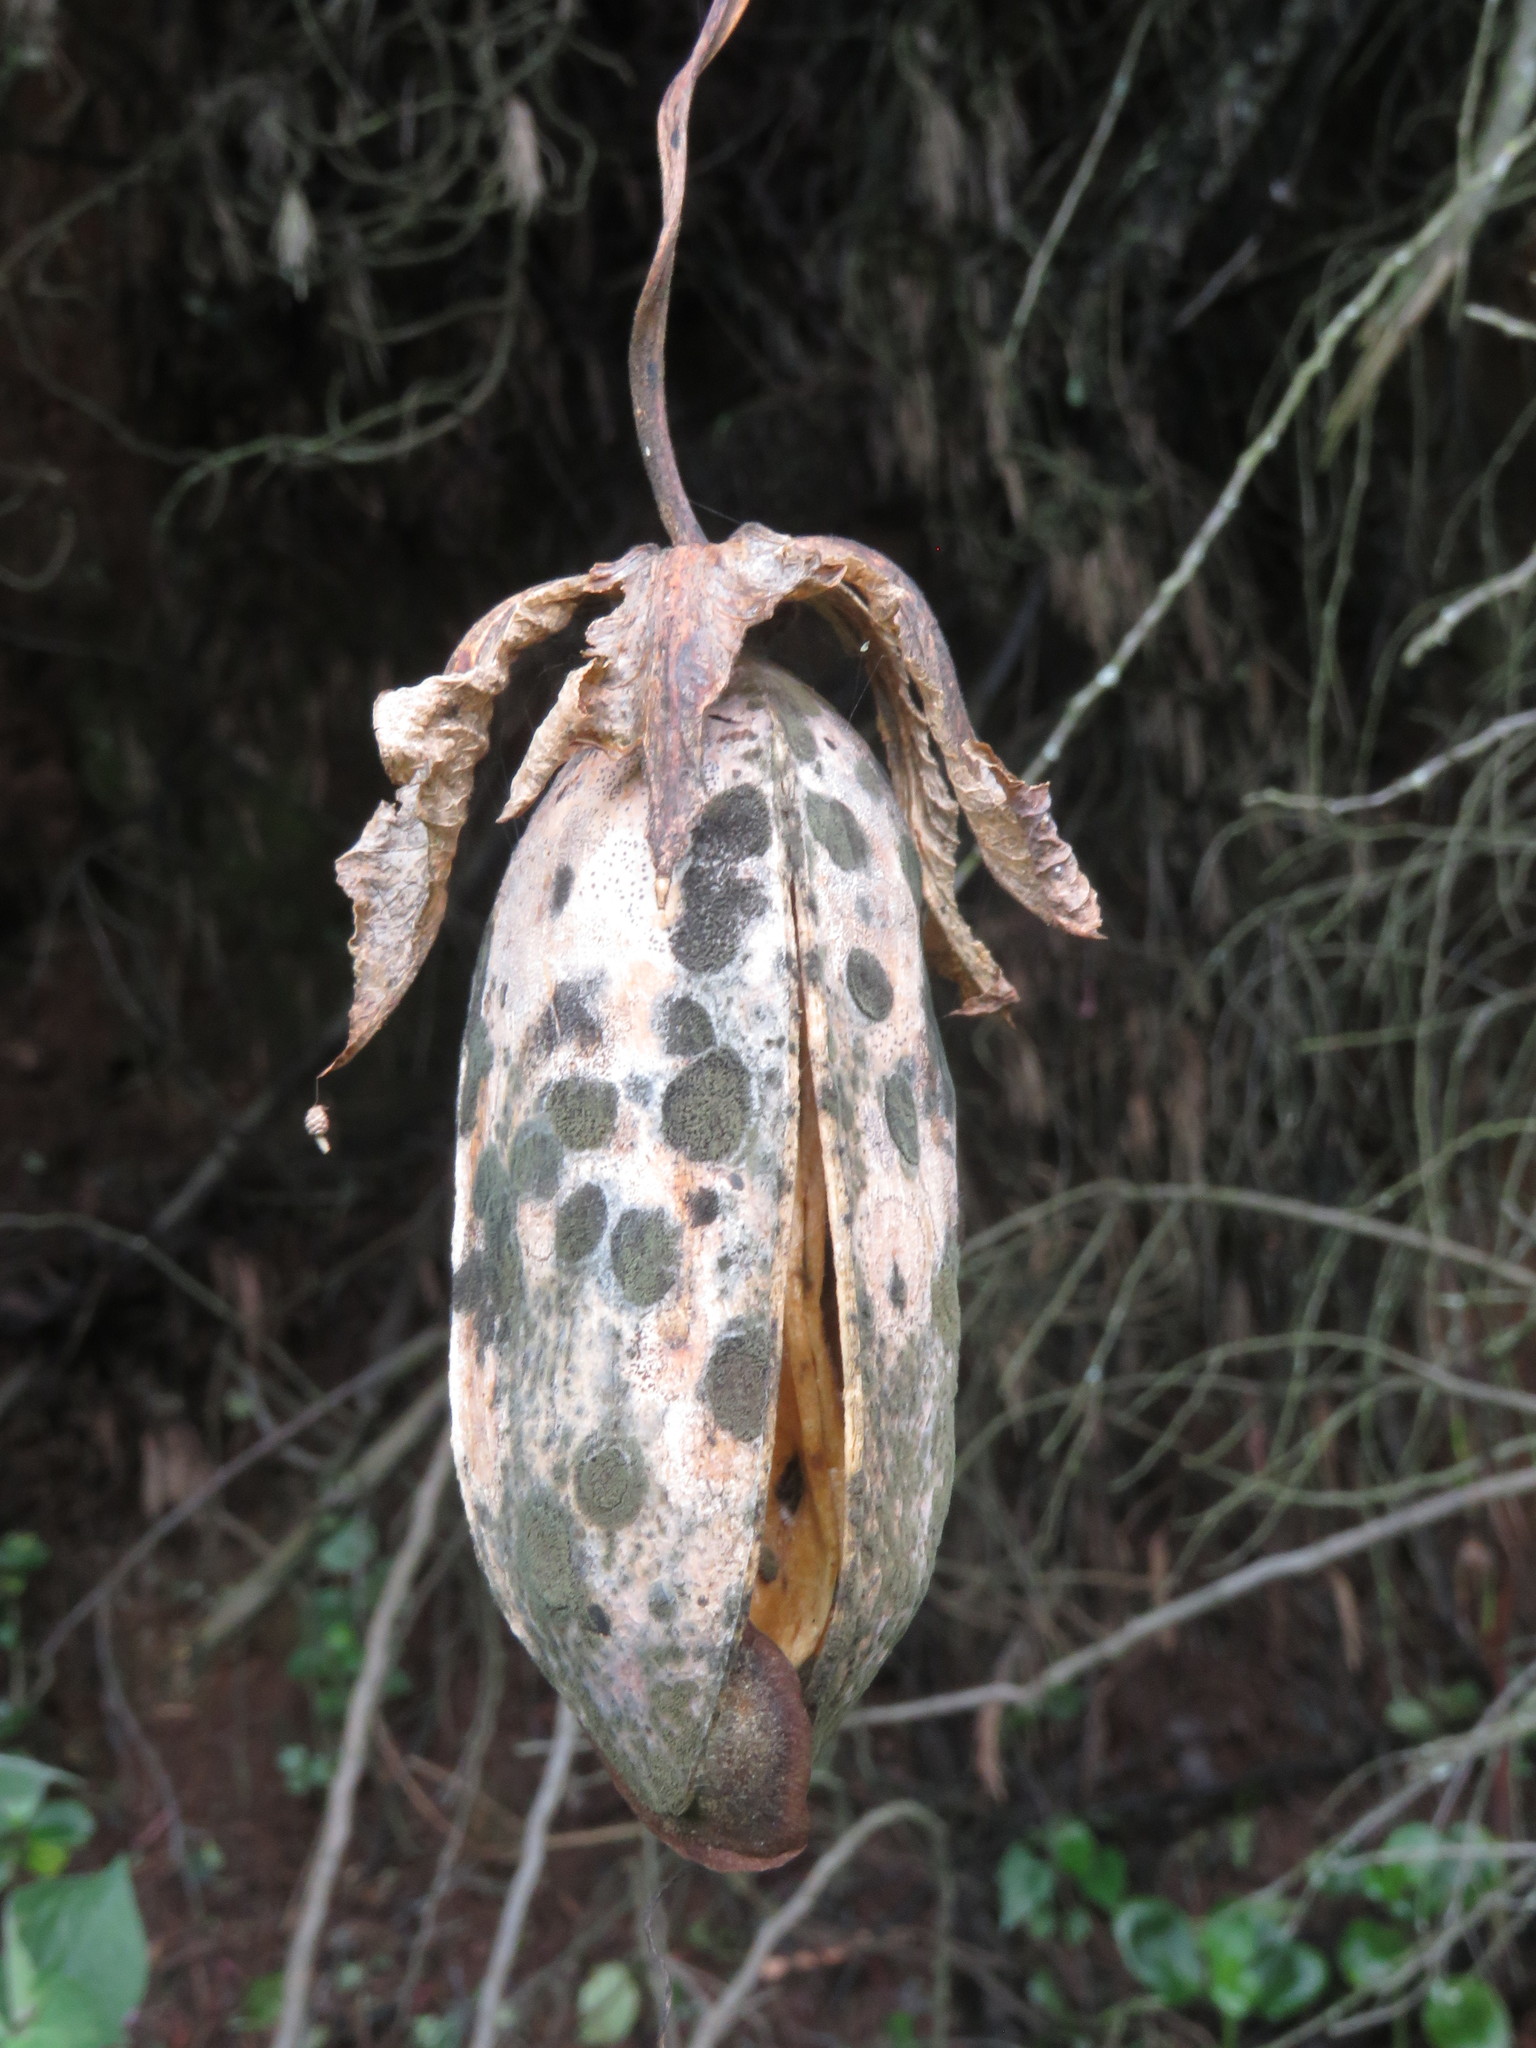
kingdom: Plantae
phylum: Tracheophyta
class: Magnoliopsida
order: Ericales
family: Polemoniaceae
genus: Cobaea
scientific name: Cobaea scandens
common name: Cup-and-saucer-vine
